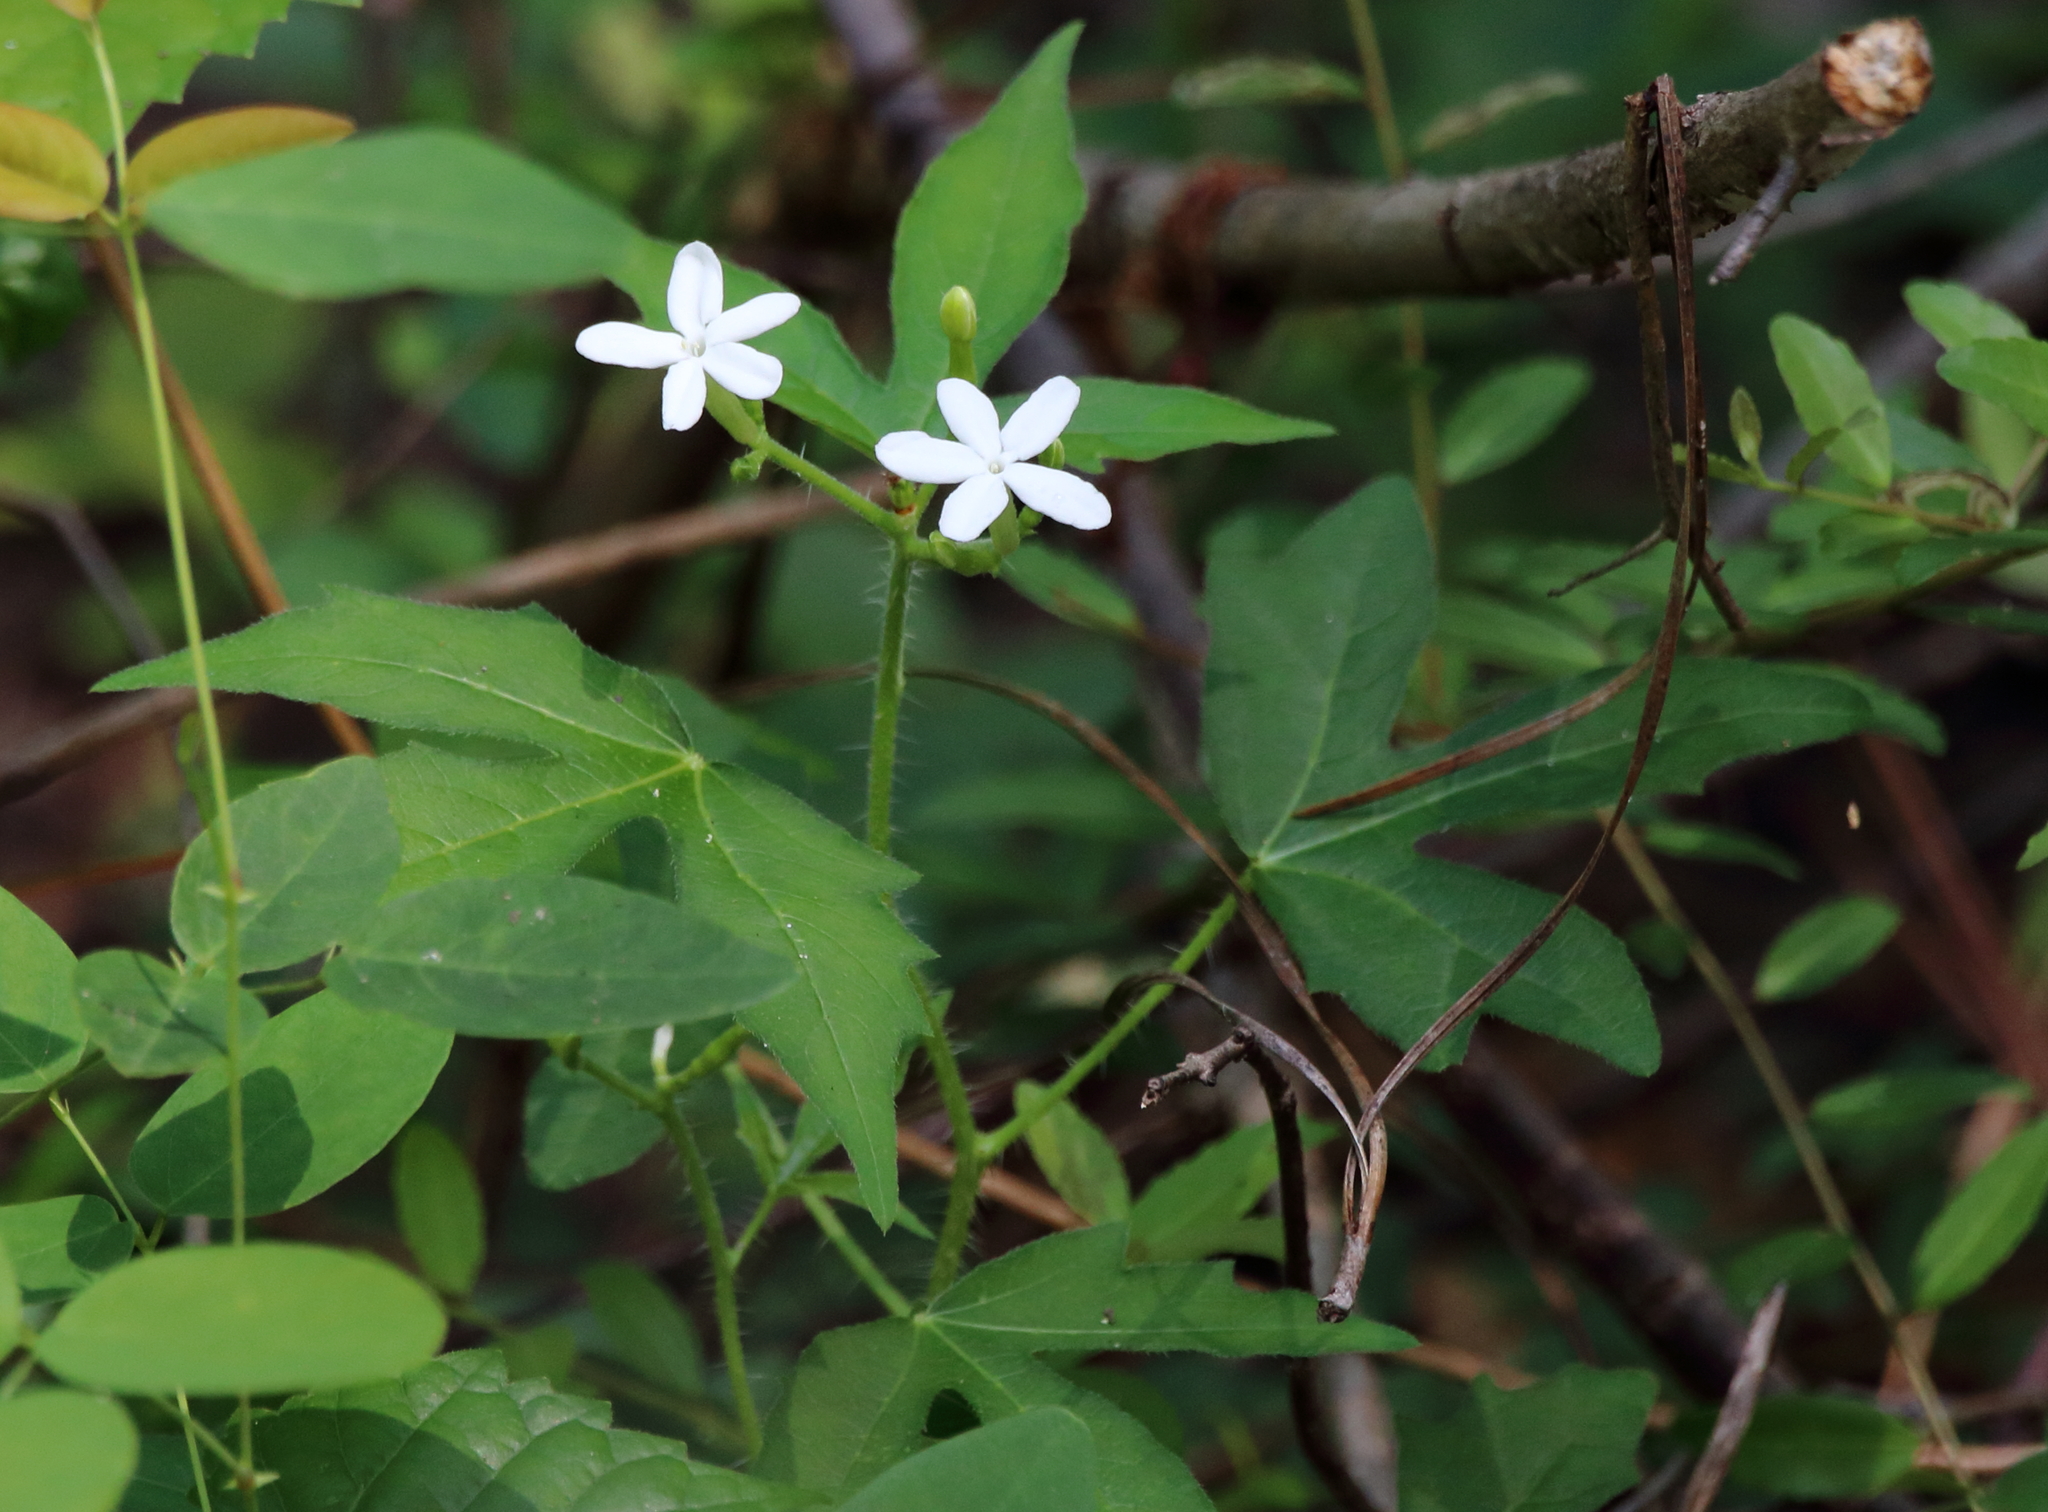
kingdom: Plantae
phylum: Tracheophyta
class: Magnoliopsida
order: Malpighiales
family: Euphorbiaceae
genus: Cnidoscolus
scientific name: Cnidoscolus stimulosus
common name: Bull-nettle
